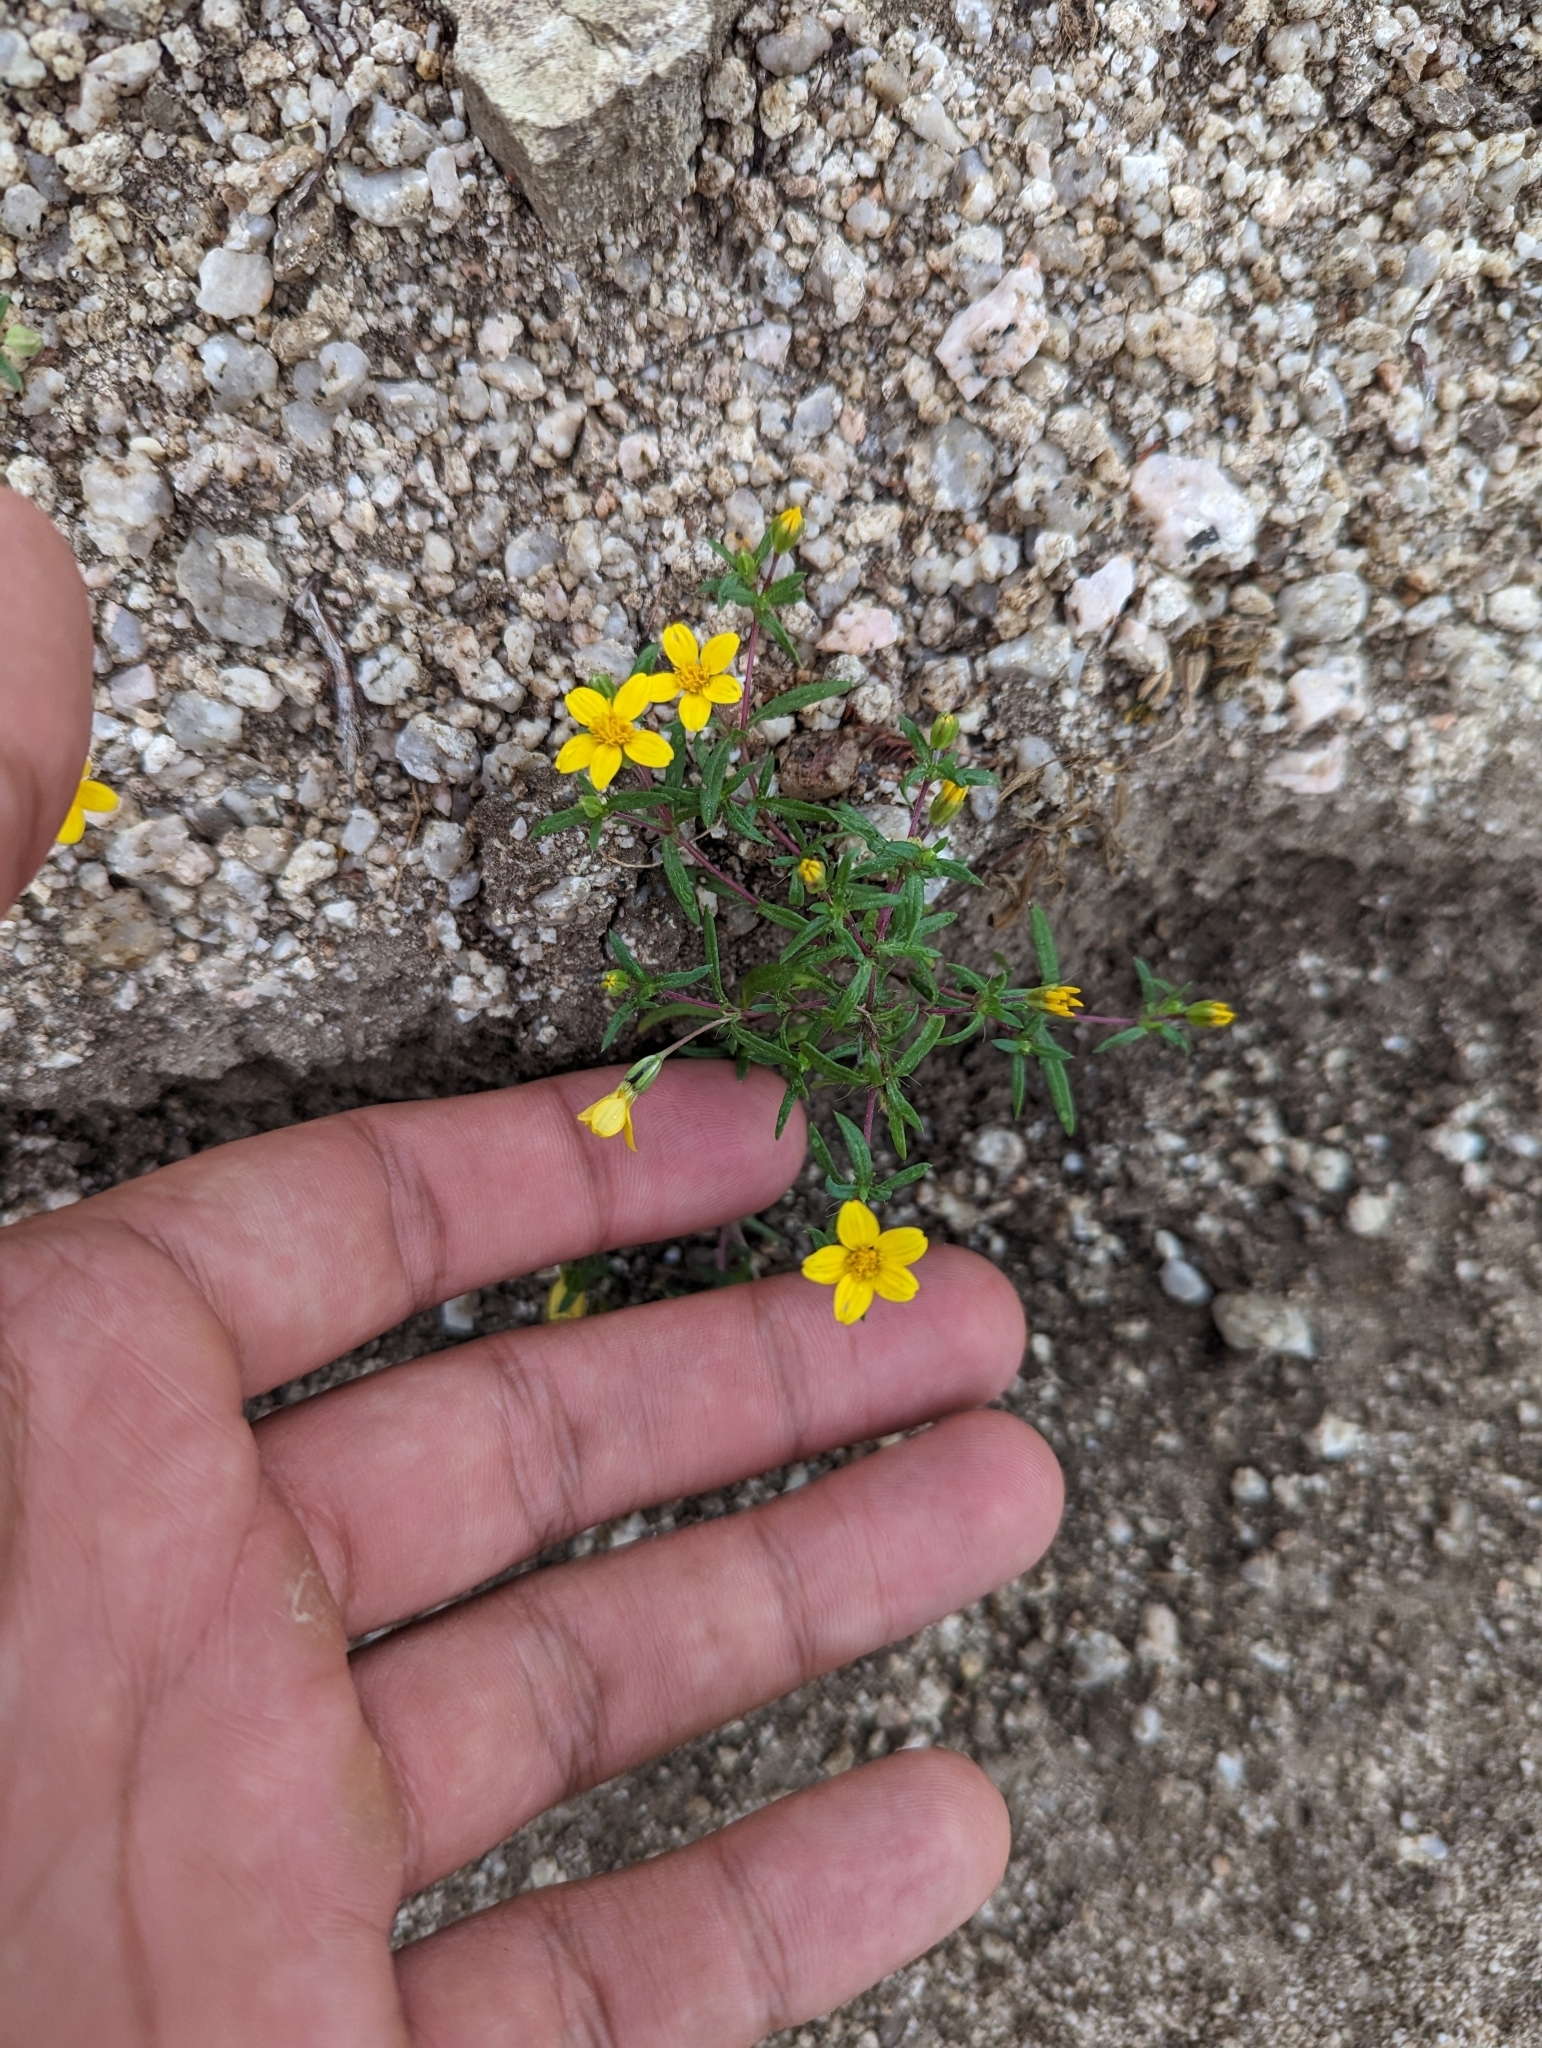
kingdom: Plantae
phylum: Tracheophyta
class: Magnoliopsida
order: Asterales
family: Asteraceae
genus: Pectis
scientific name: Pectis multiseta
